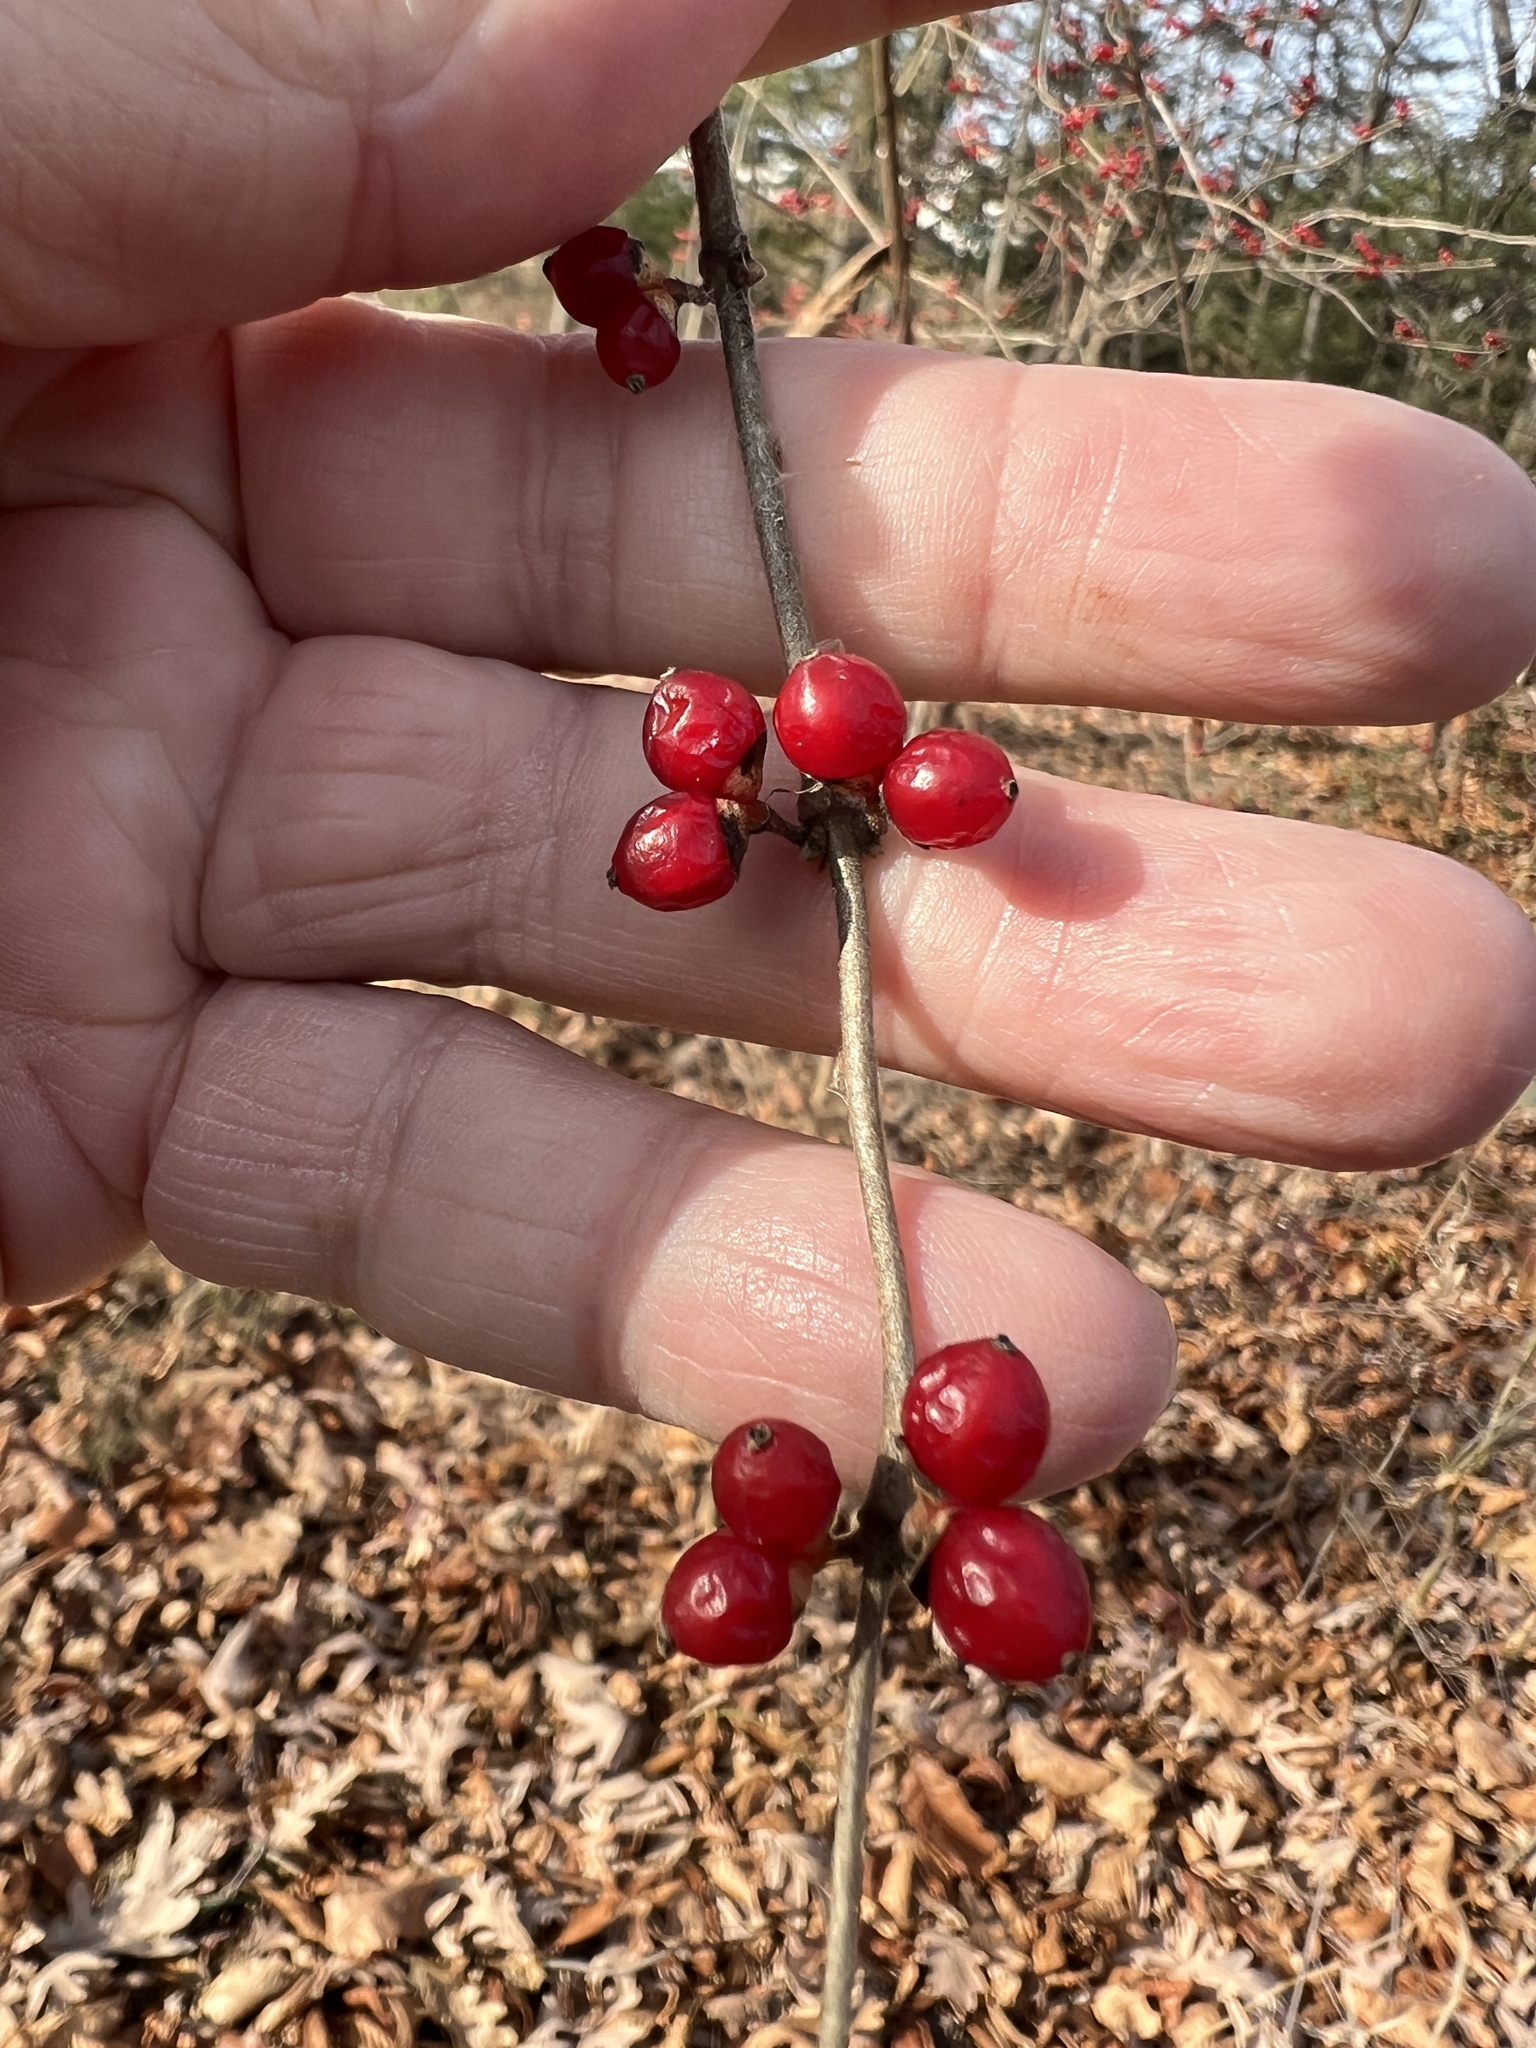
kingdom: Plantae
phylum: Tracheophyta
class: Magnoliopsida
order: Dipsacales
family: Caprifoliaceae
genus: Lonicera
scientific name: Lonicera maackii
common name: Amur honeysuckle
